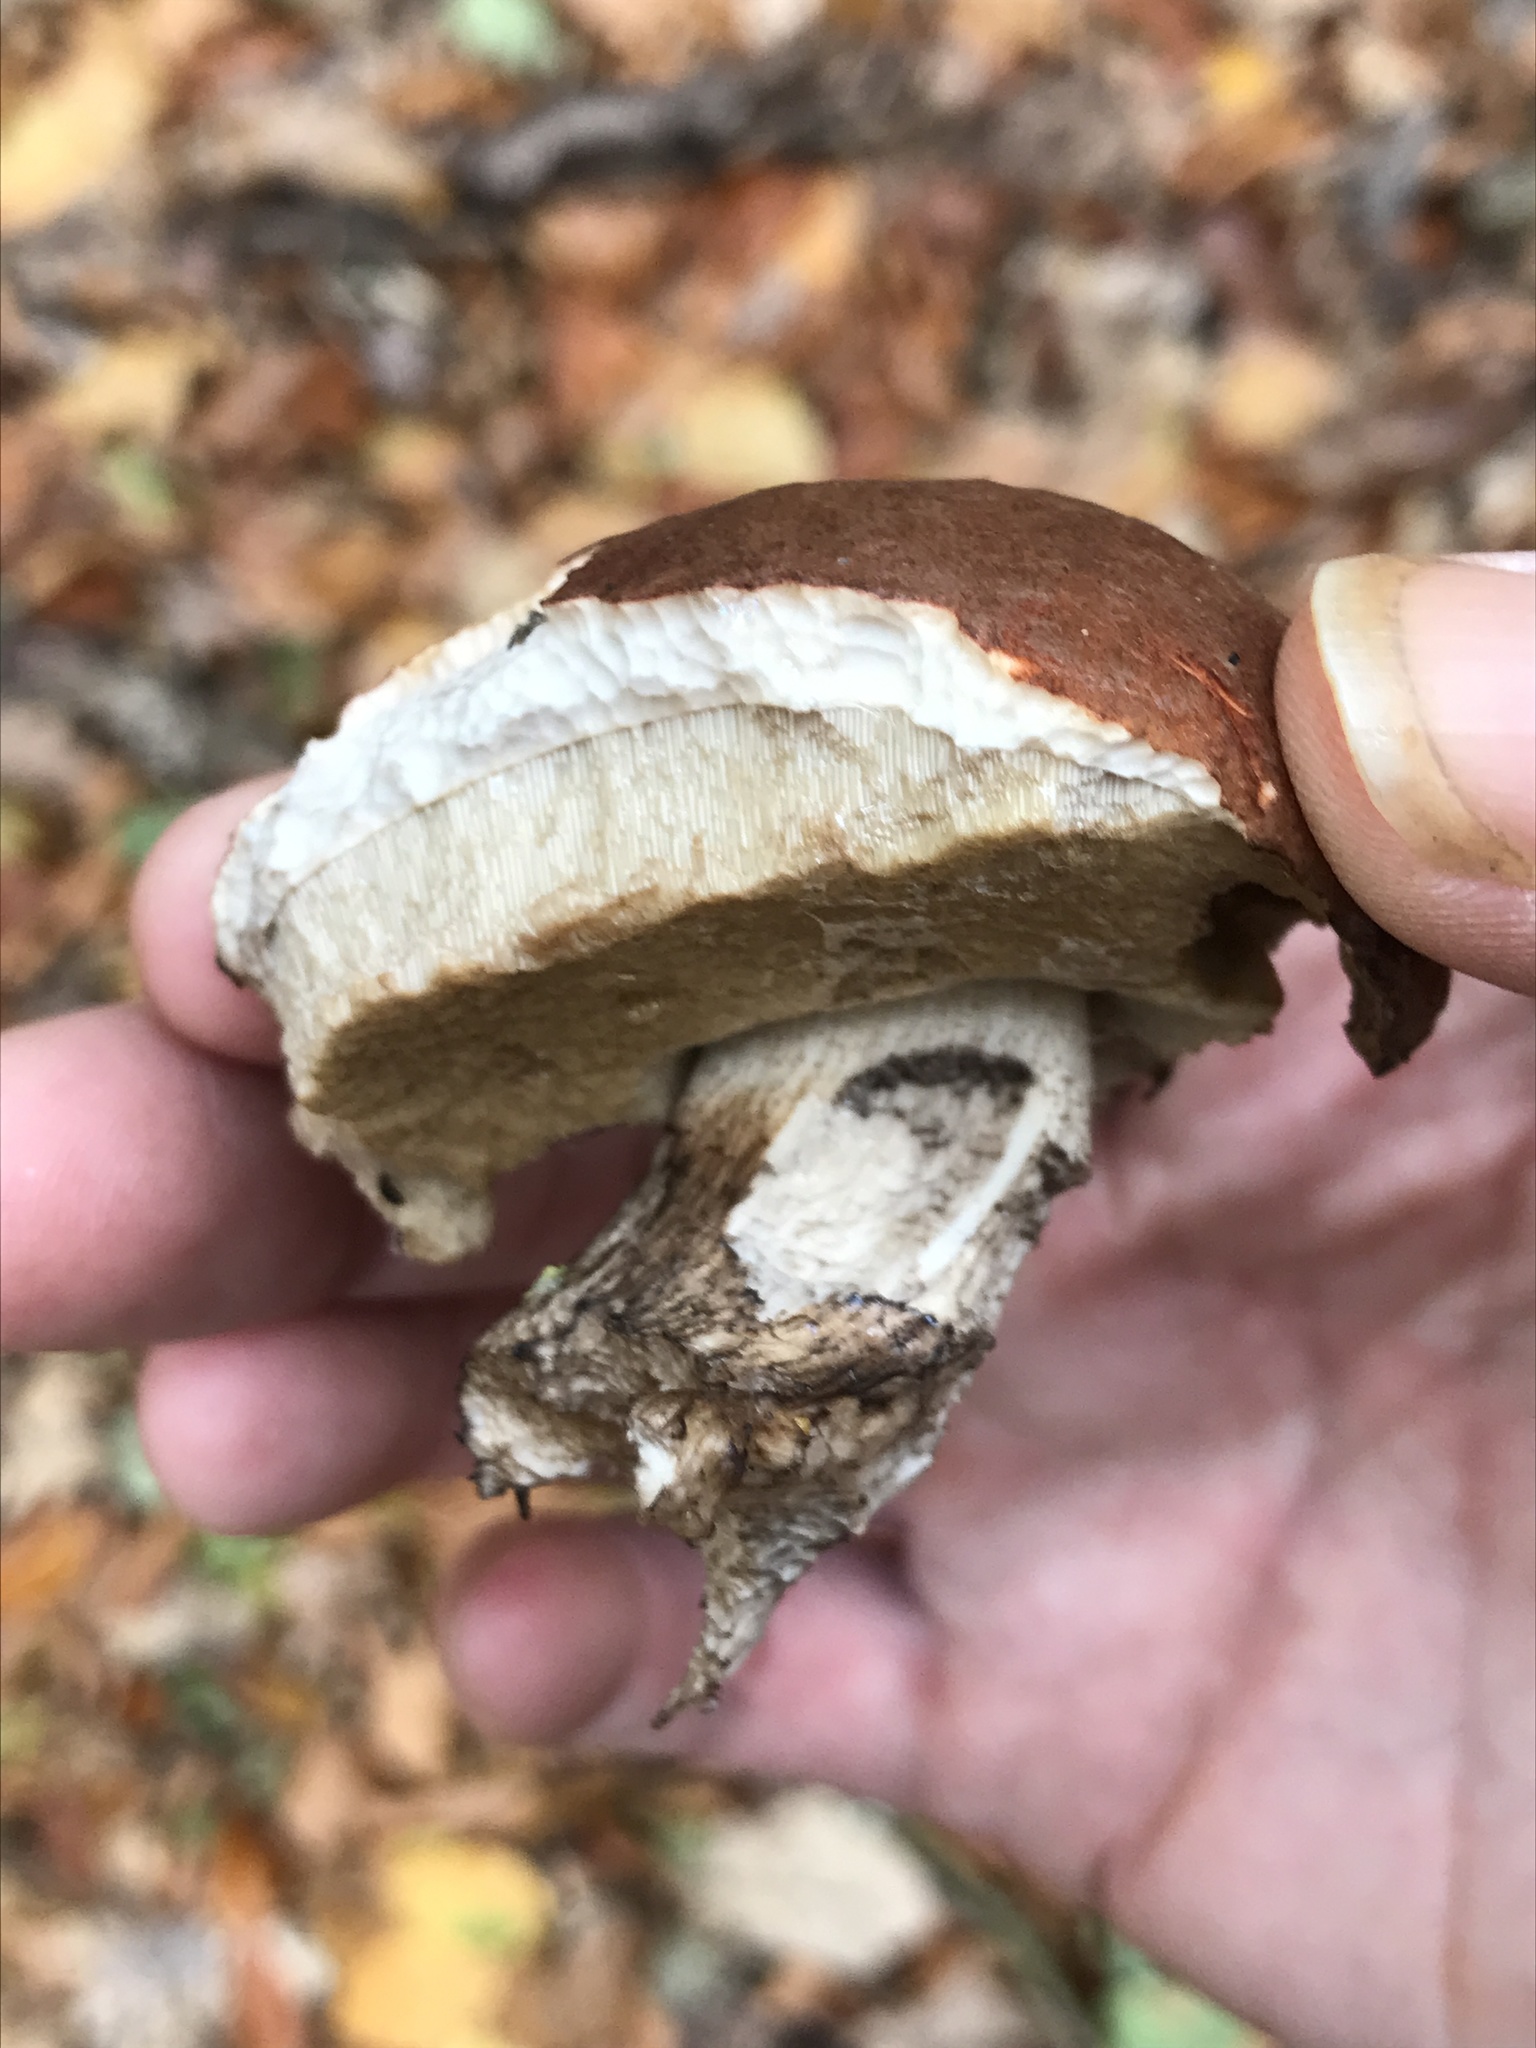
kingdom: Fungi
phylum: Basidiomycota
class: Agaricomycetes
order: Boletales
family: Boletaceae
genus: Boletus
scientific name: Boletus edulis
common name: Cep
